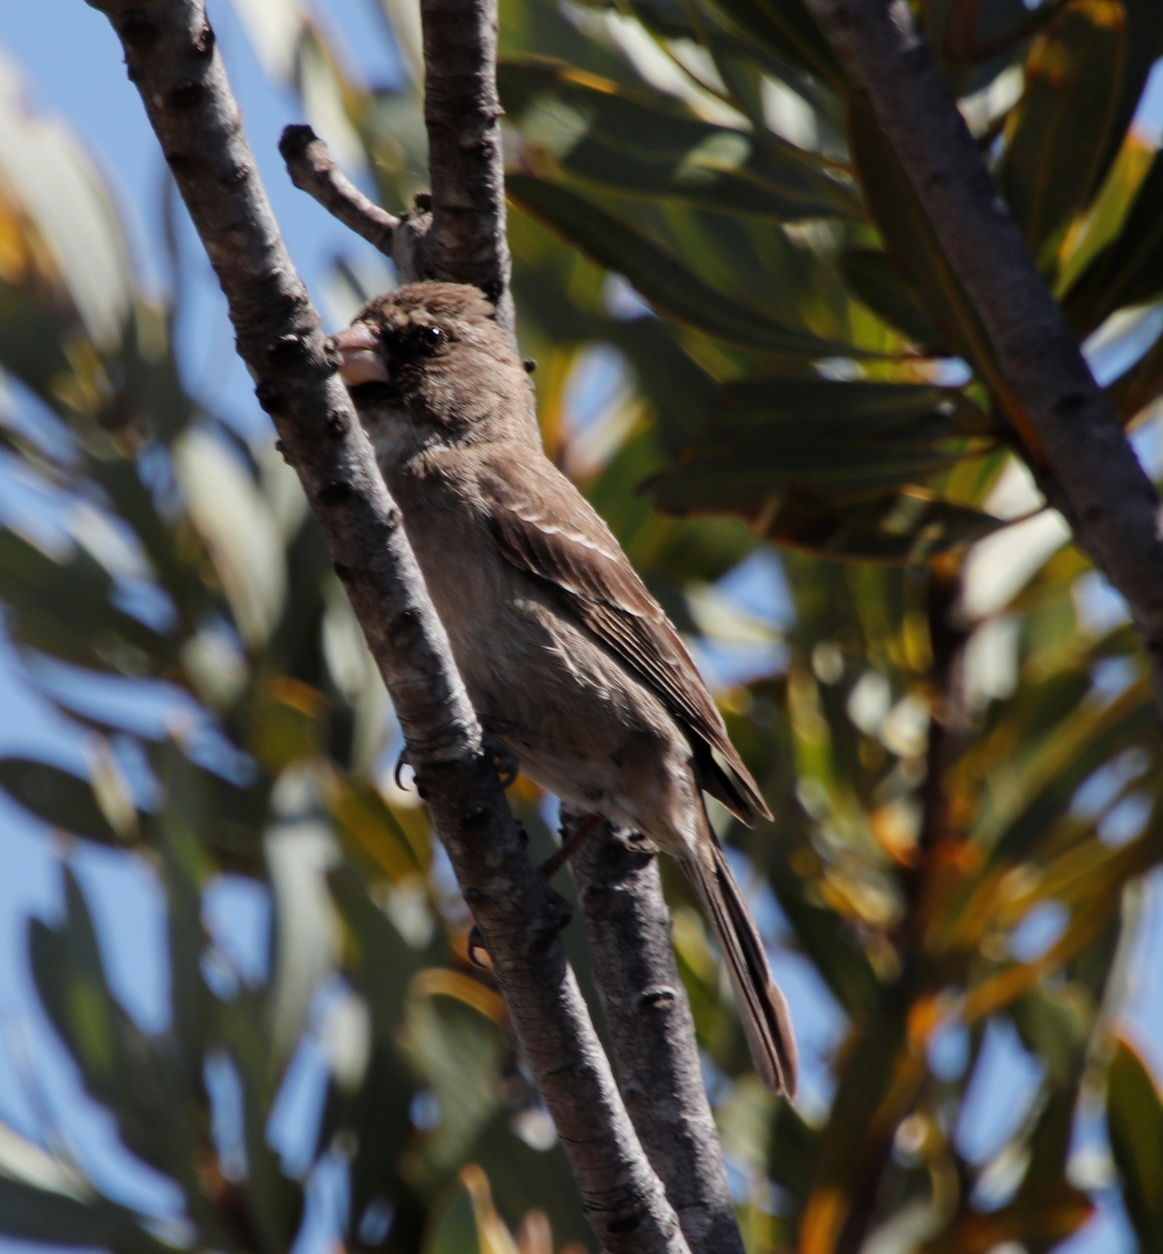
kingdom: Animalia
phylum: Chordata
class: Aves
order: Passeriformes
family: Fringillidae
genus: Crithagra
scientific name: Crithagra leucoptera
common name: Protea canary
